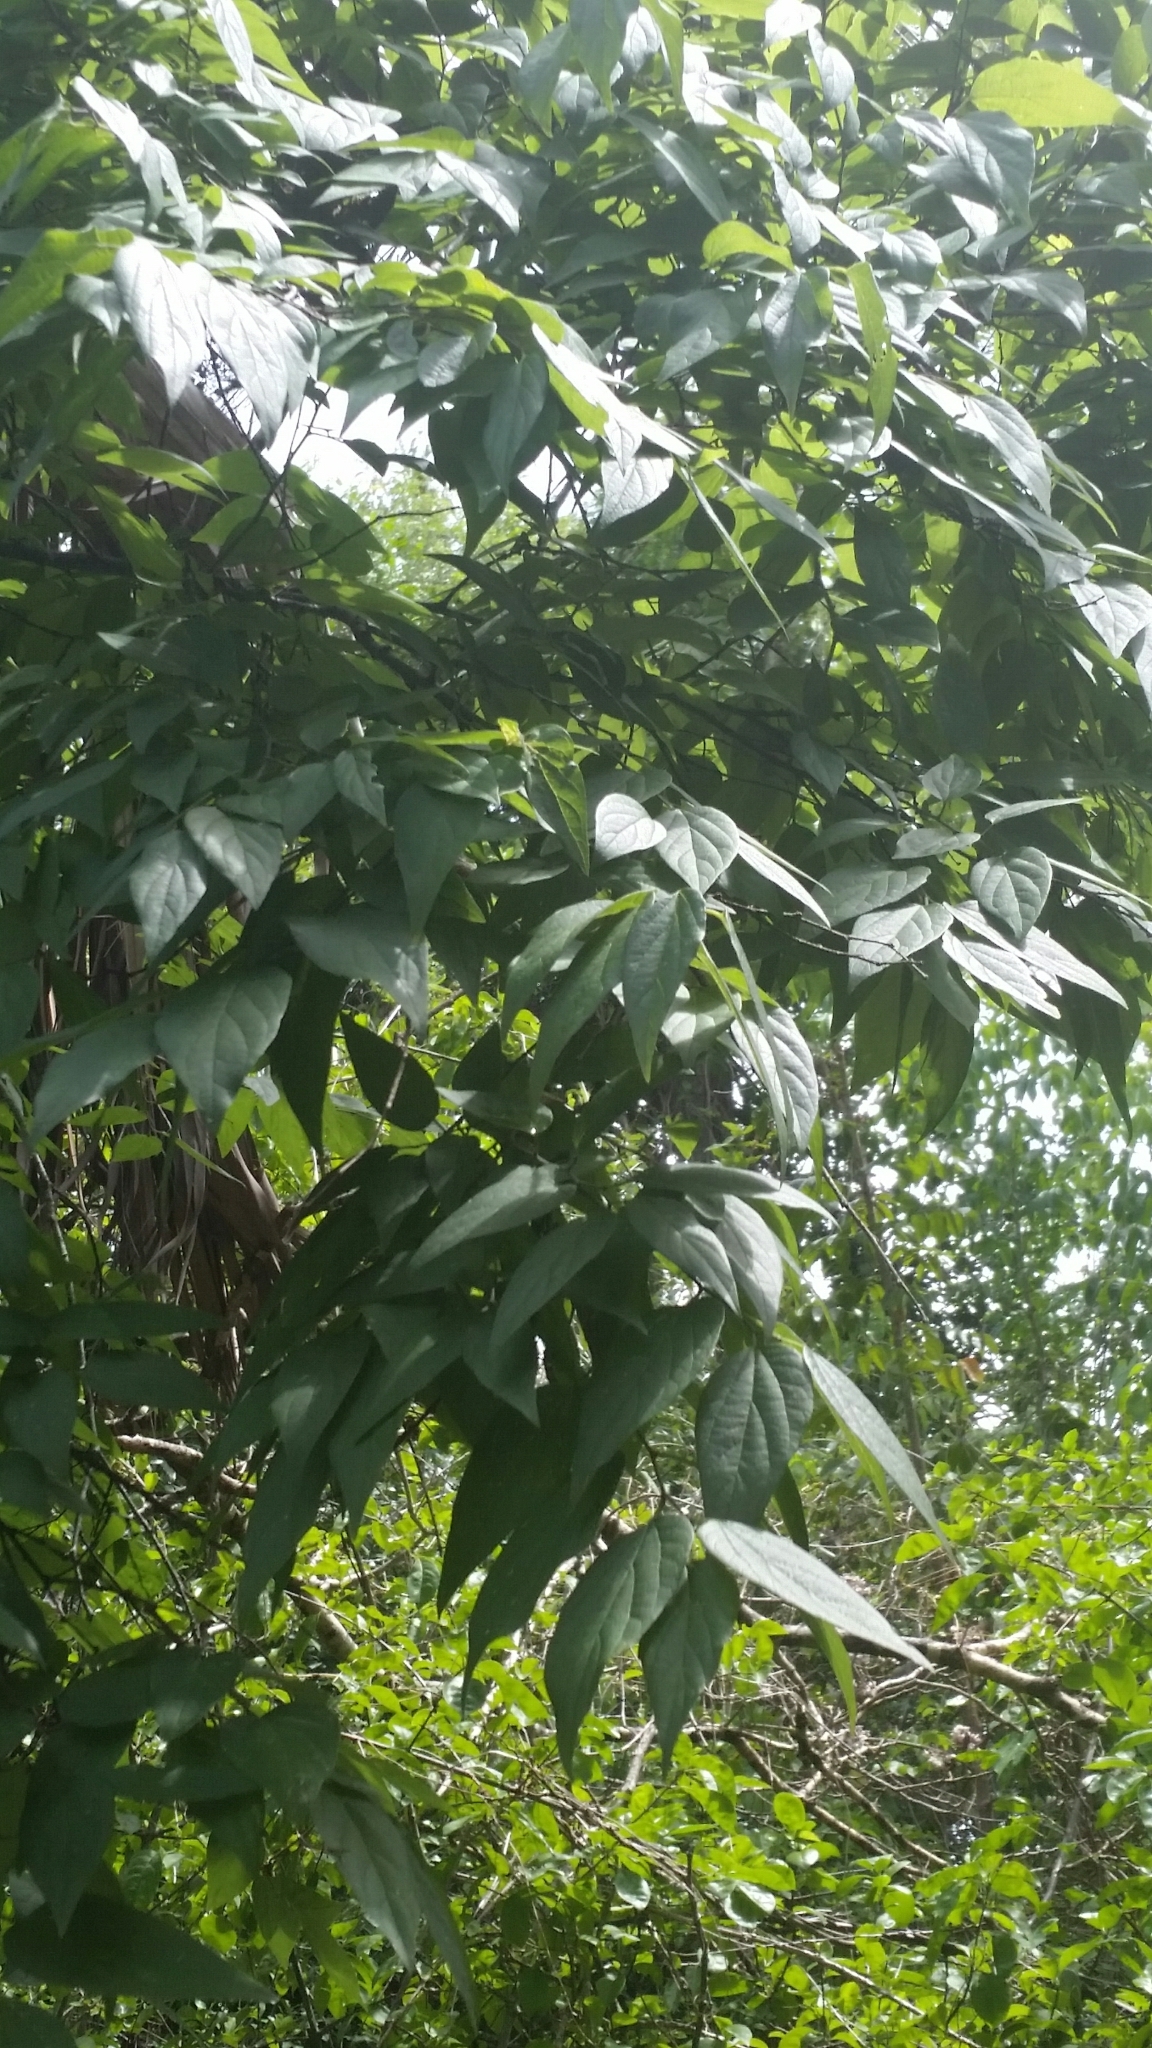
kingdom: Plantae
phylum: Tracheophyta
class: Magnoliopsida
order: Rosales
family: Cannabaceae
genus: Celtis
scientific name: Celtis laevigata
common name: Sugarberry
